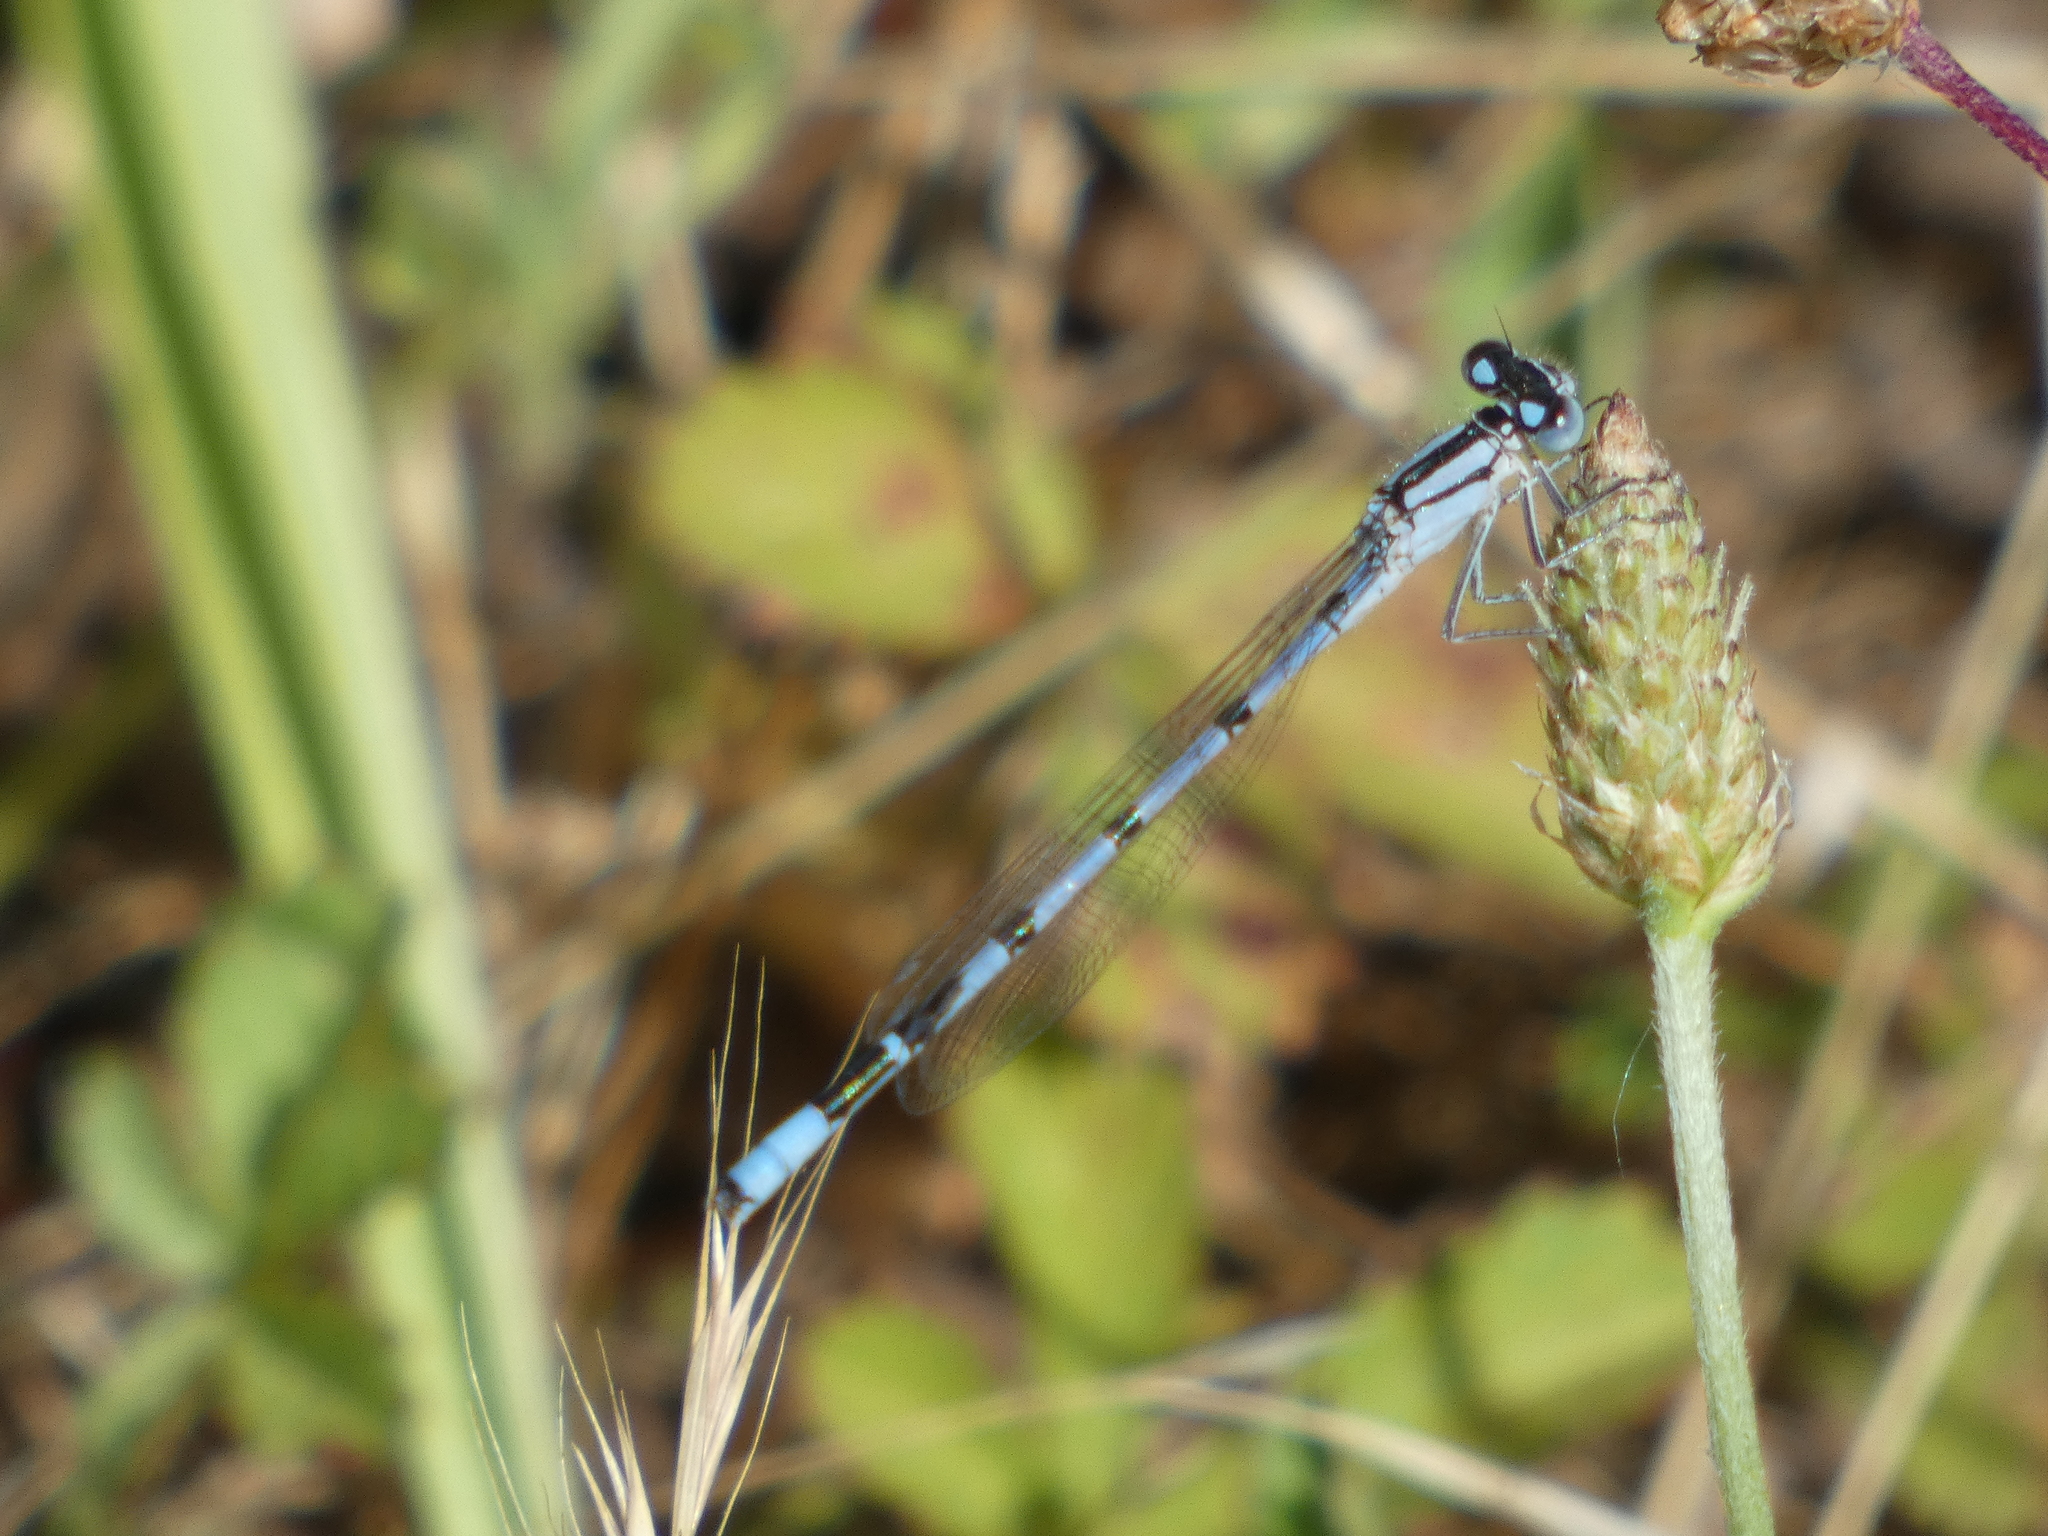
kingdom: Animalia
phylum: Arthropoda
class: Insecta
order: Odonata
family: Coenagrionidae
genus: Enallagma
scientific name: Enallagma cyathigerum
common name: Common blue damselfly
